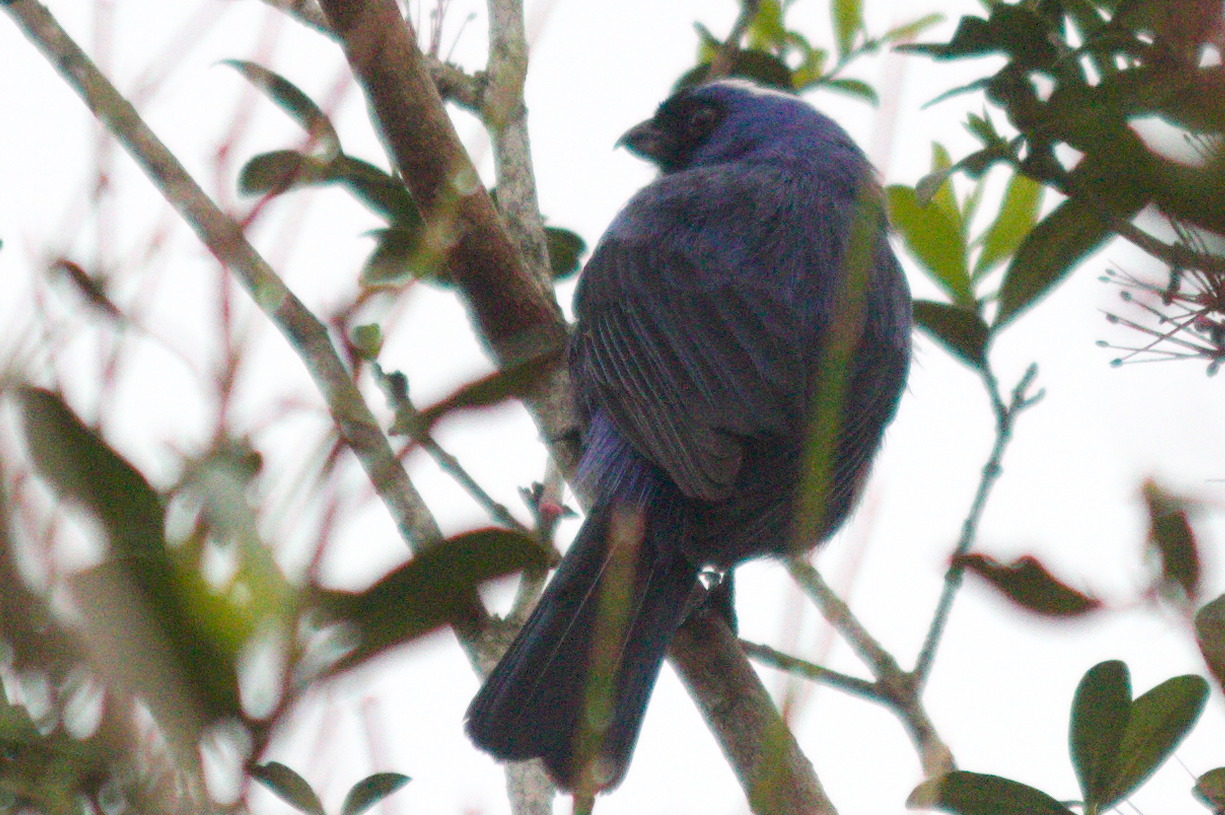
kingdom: Animalia
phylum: Chordata
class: Aves
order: Passeriformes
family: Thraupidae
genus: Stephanophorus
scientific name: Stephanophorus diadematus
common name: Diademed tanager
